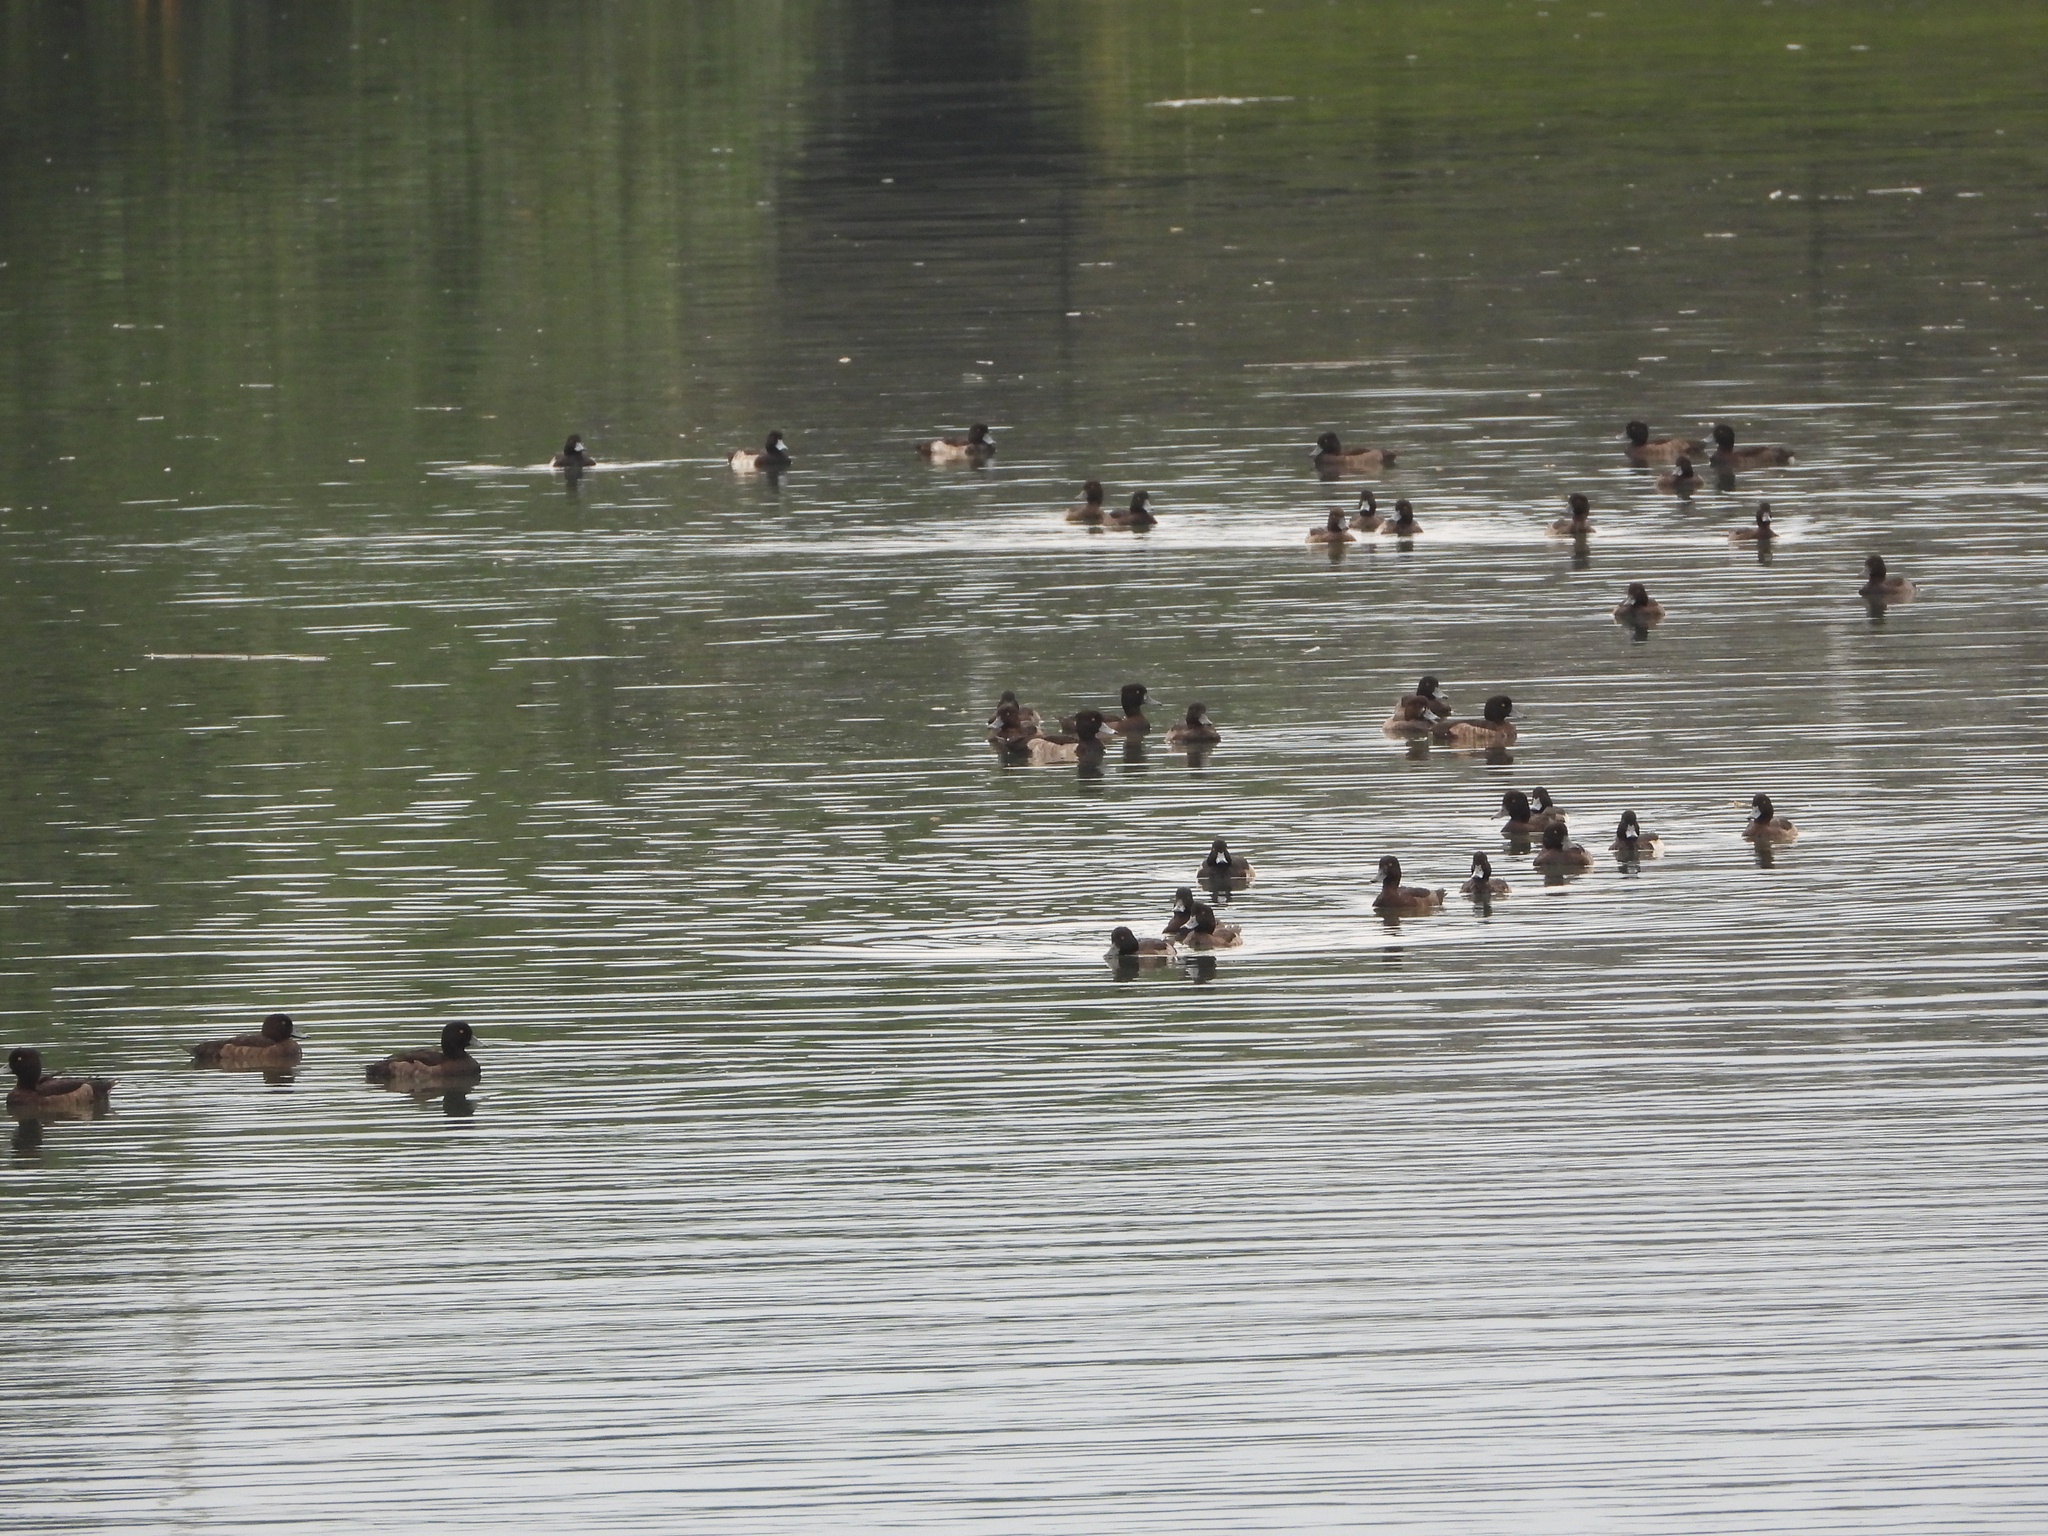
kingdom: Animalia
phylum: Chordata
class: Aves
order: Anseriformes
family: Anatidae
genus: Aythya
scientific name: Aythya fuligula
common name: Tufted duck
